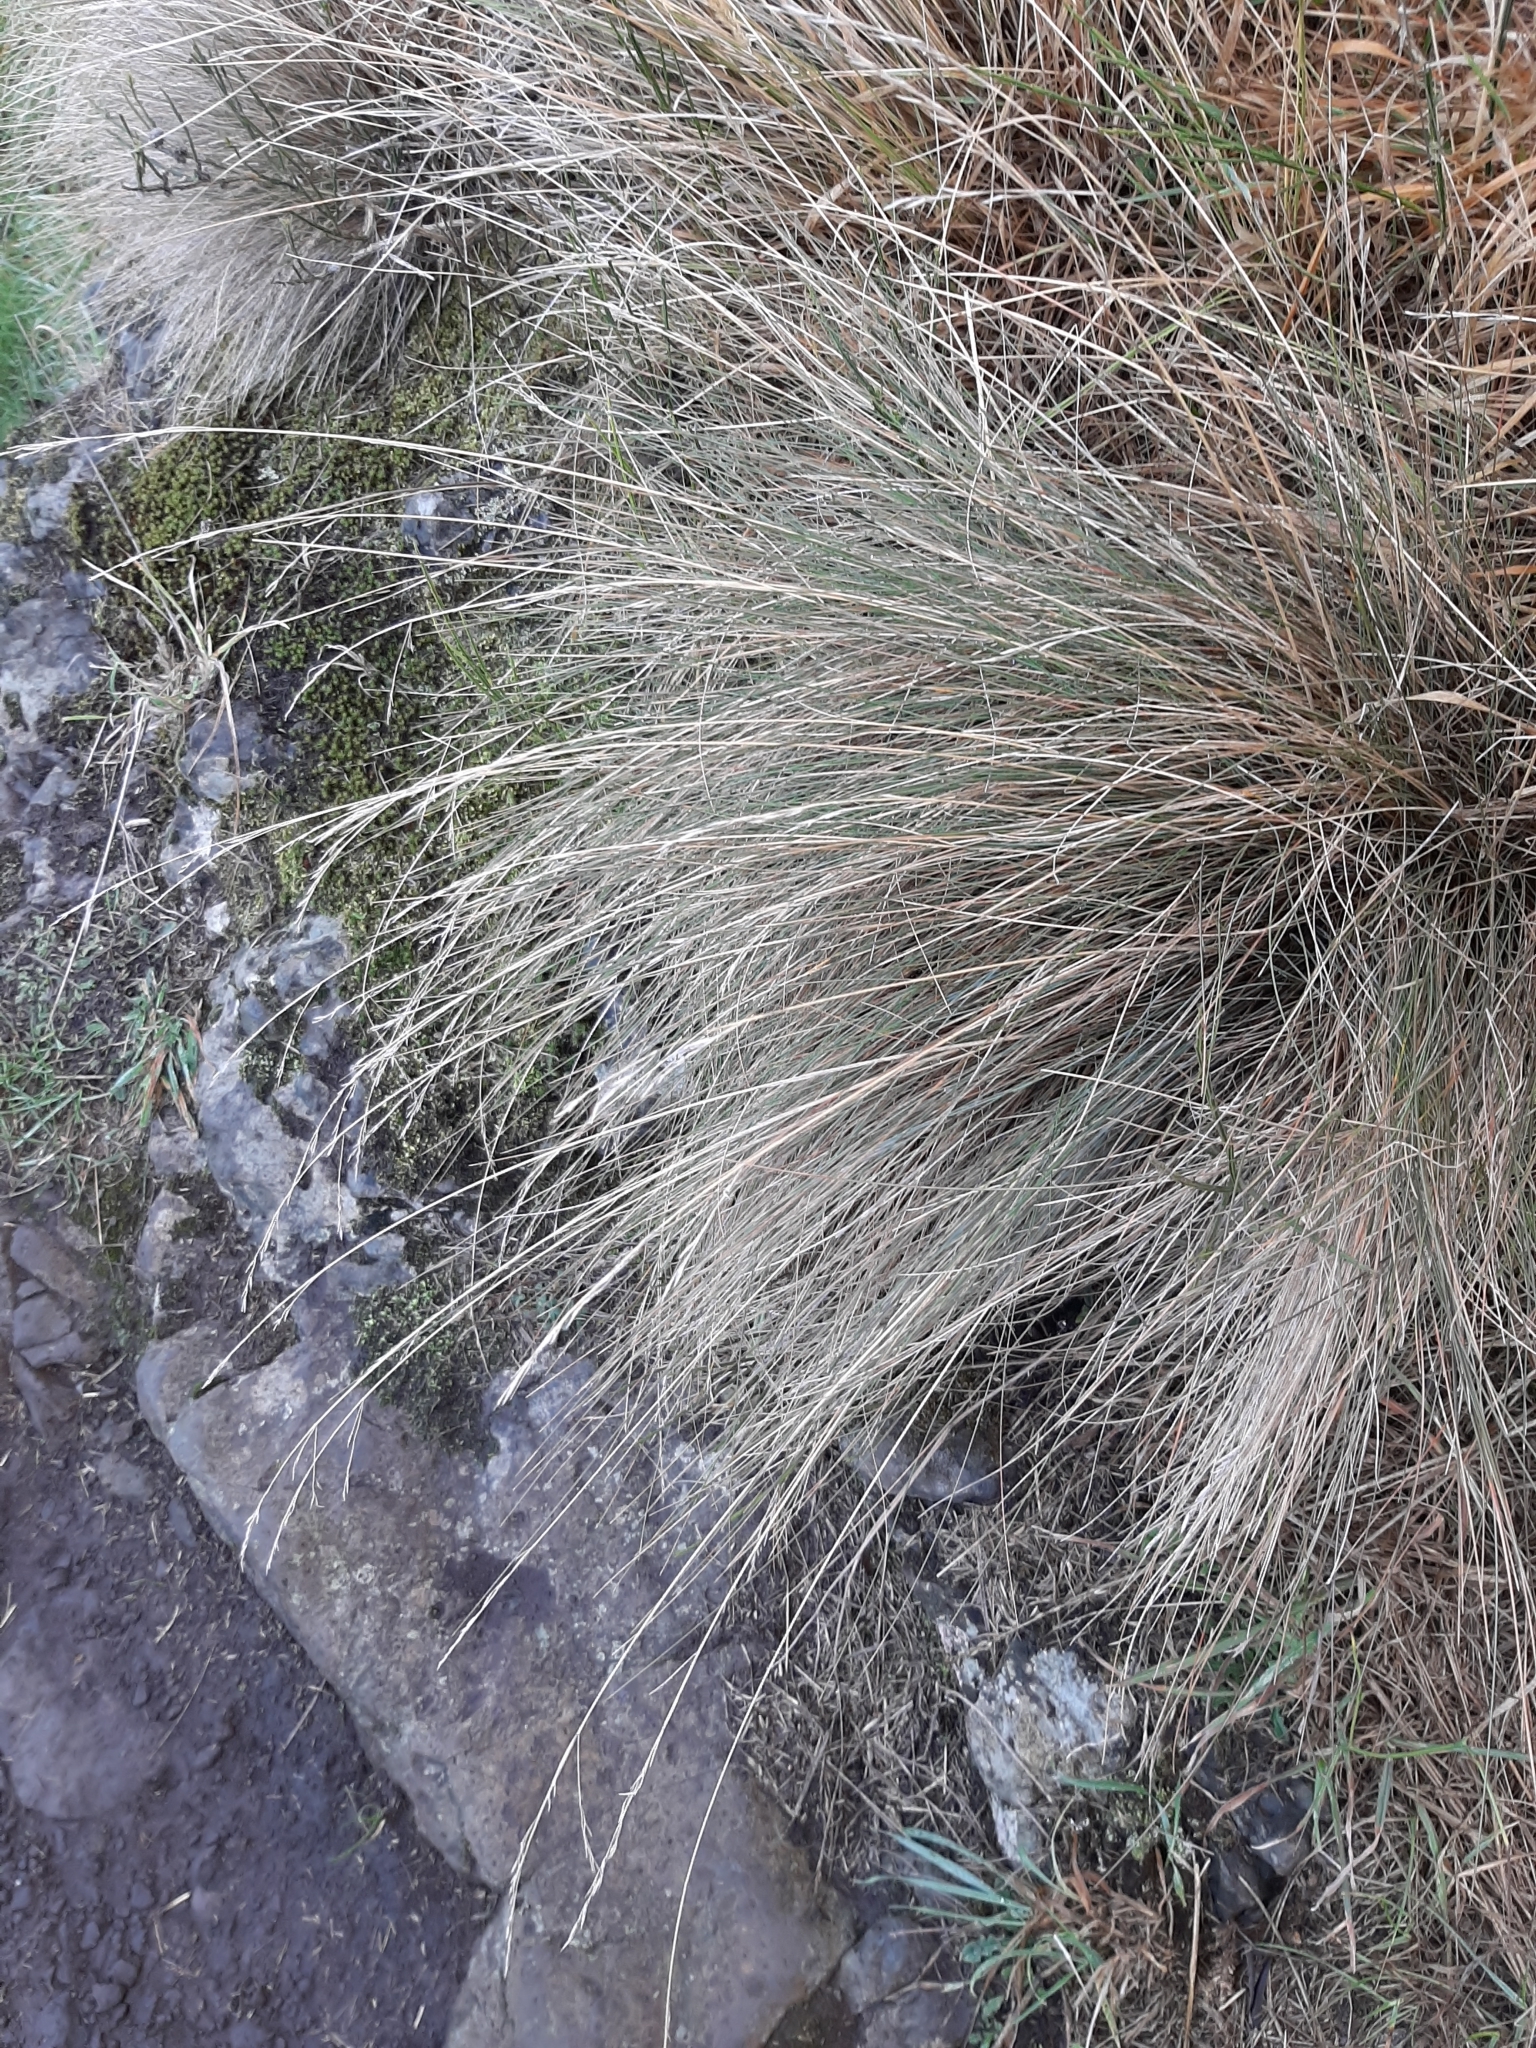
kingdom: Plantae
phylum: Tracheophyta
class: Liliopsida
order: Poales
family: Poaceae
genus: Festuca
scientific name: Festuca actae
